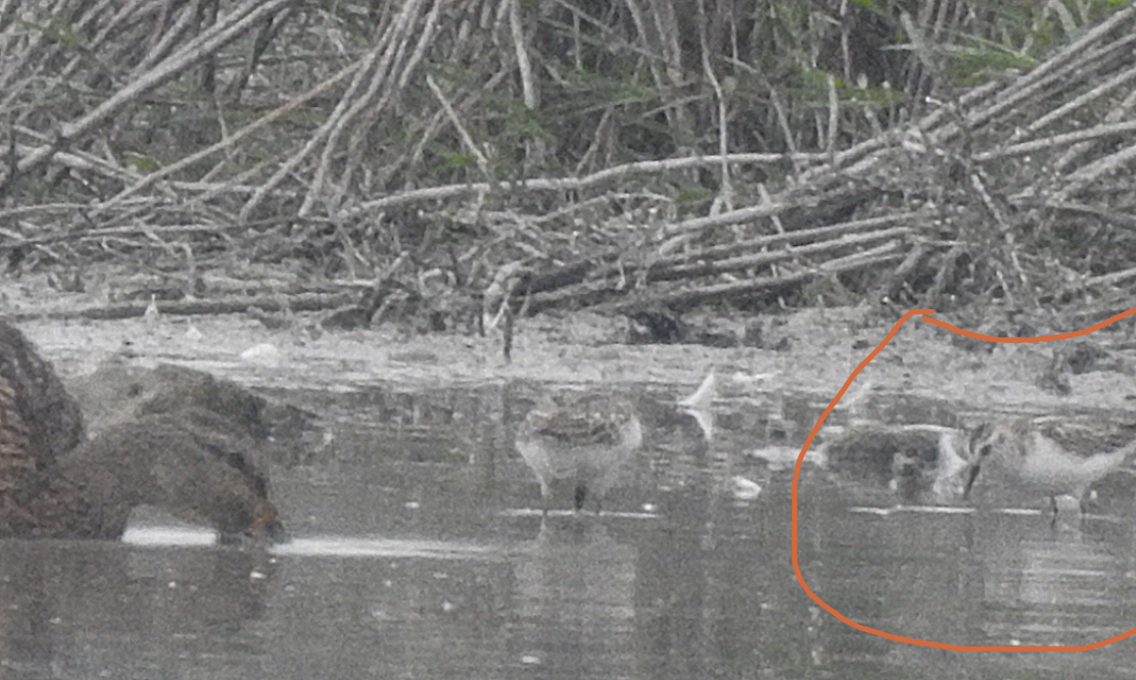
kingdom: Animalia
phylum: Chordata
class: Aves
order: Charadriiformes
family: Scolopacidae
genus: Calidris
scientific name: Calidris minuta
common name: Little stint
